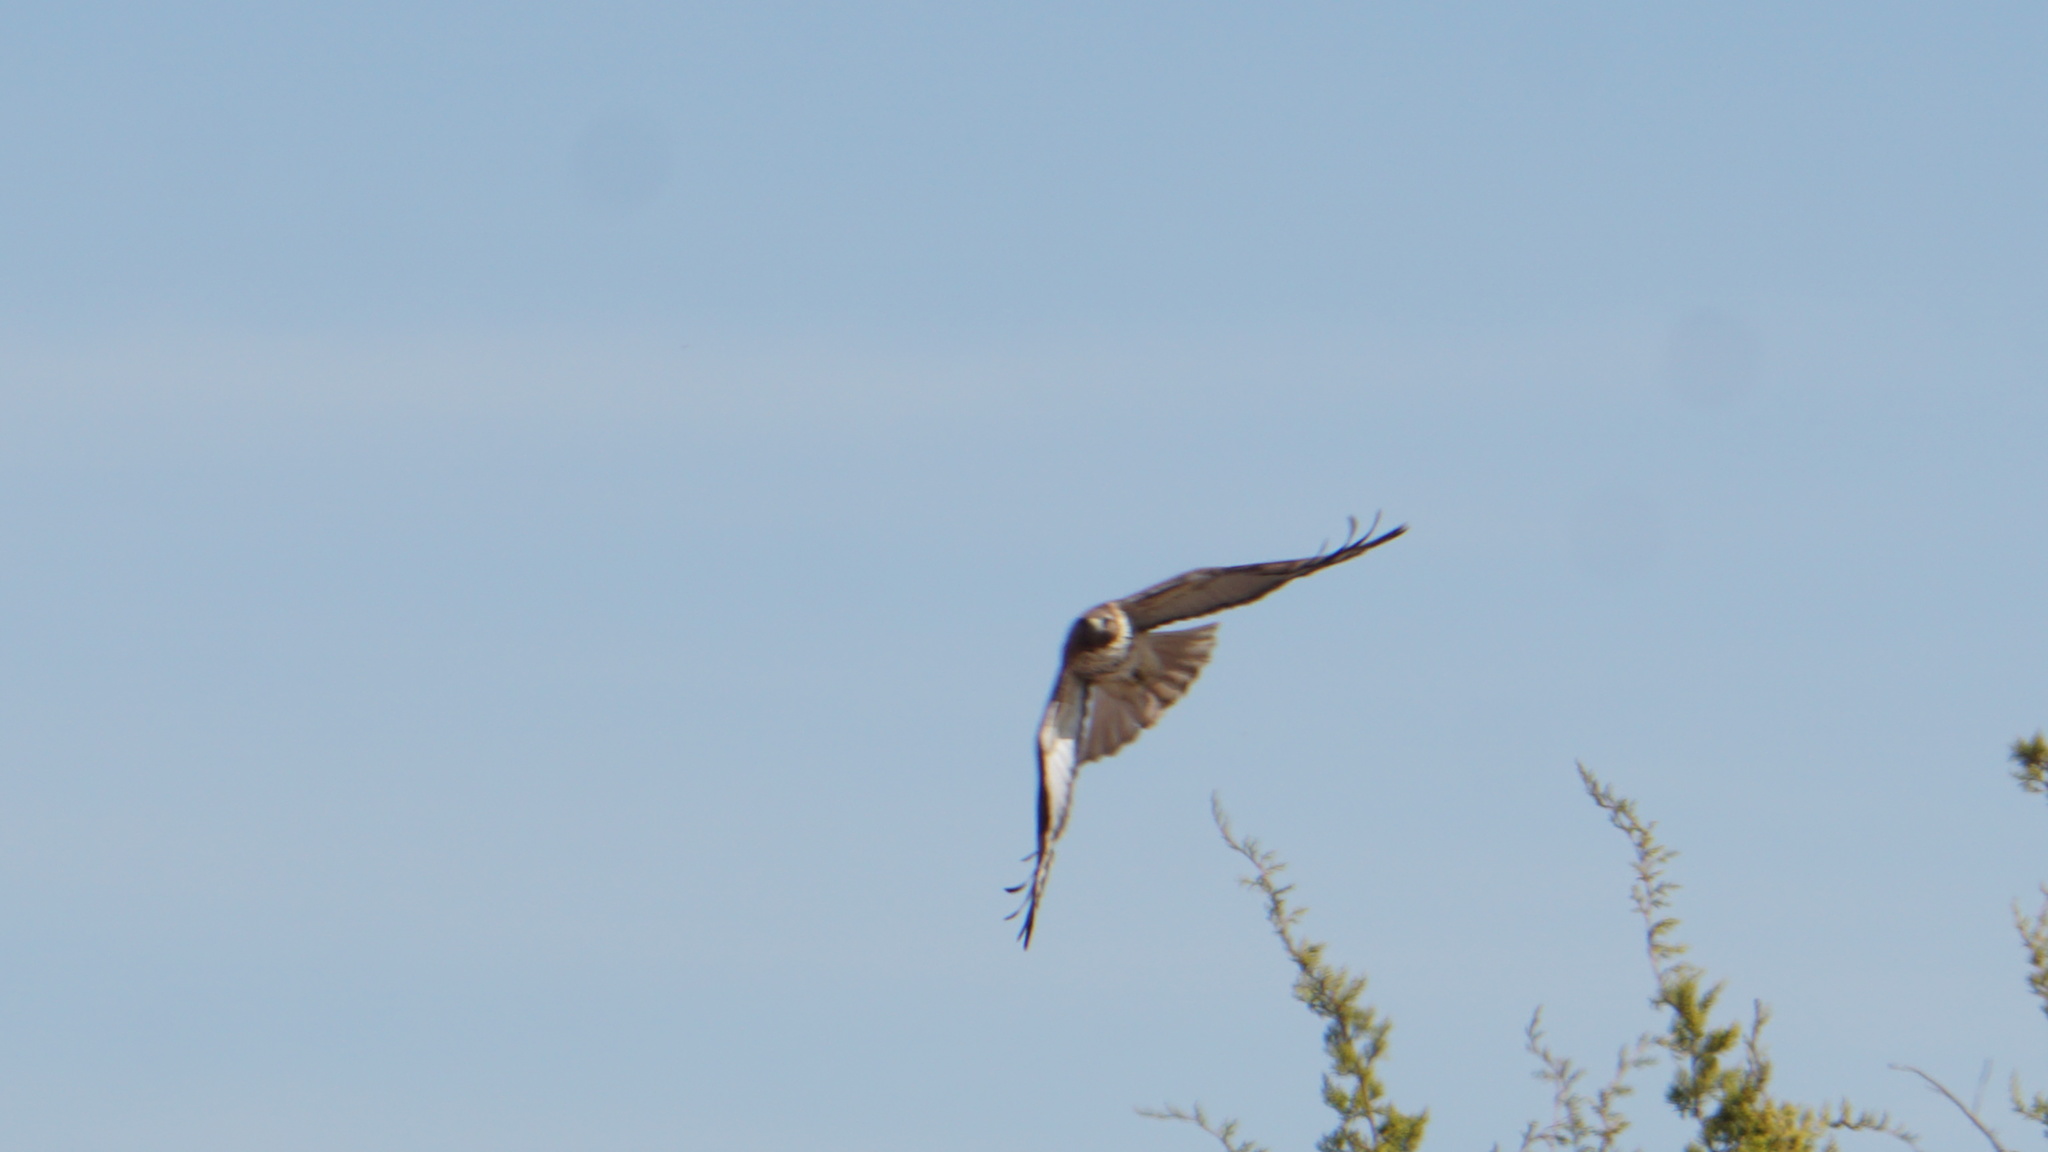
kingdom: Animalia
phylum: Chordata
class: Aves
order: Accipitriformes
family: Accipitridae
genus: Buteo
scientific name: Buteo jamaicensis
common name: Red-tailed hawk
